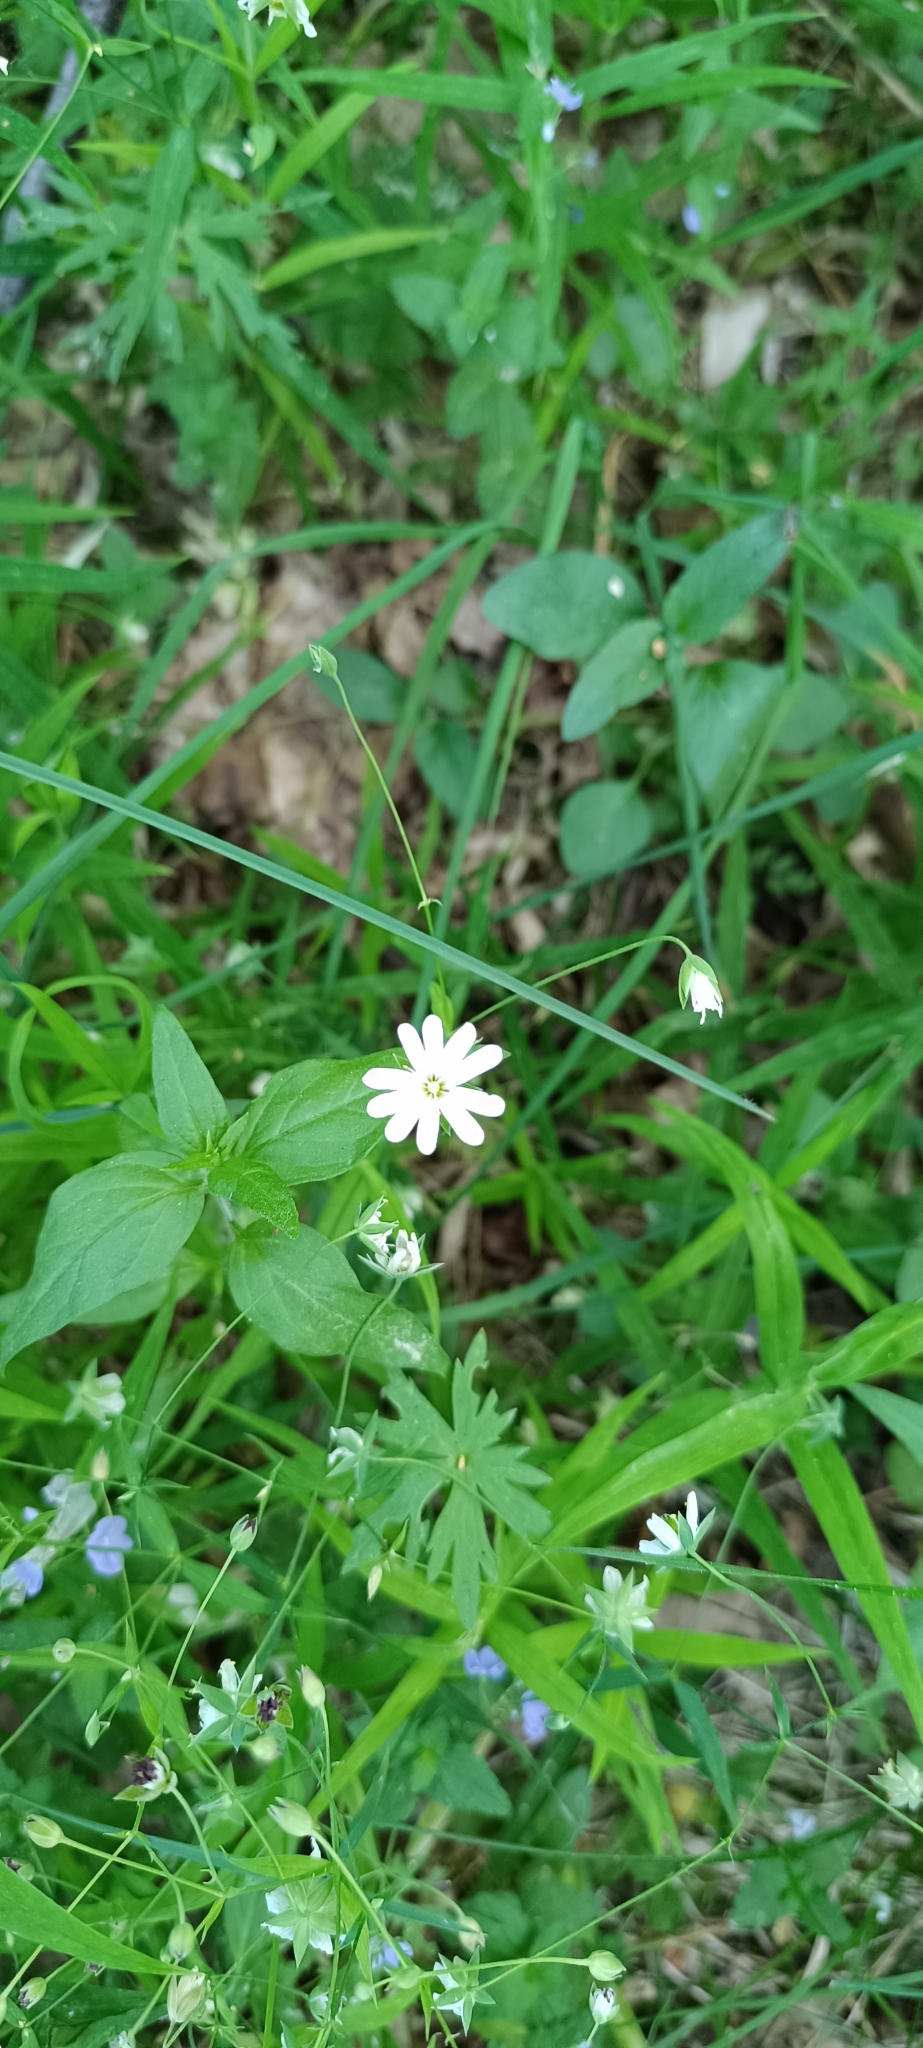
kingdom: Plantae
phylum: Tracheophyta
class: Magnoliopsida
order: Caryophyllales
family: Caryophyllaceae
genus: Rabelera
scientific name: Rabelera holostea
